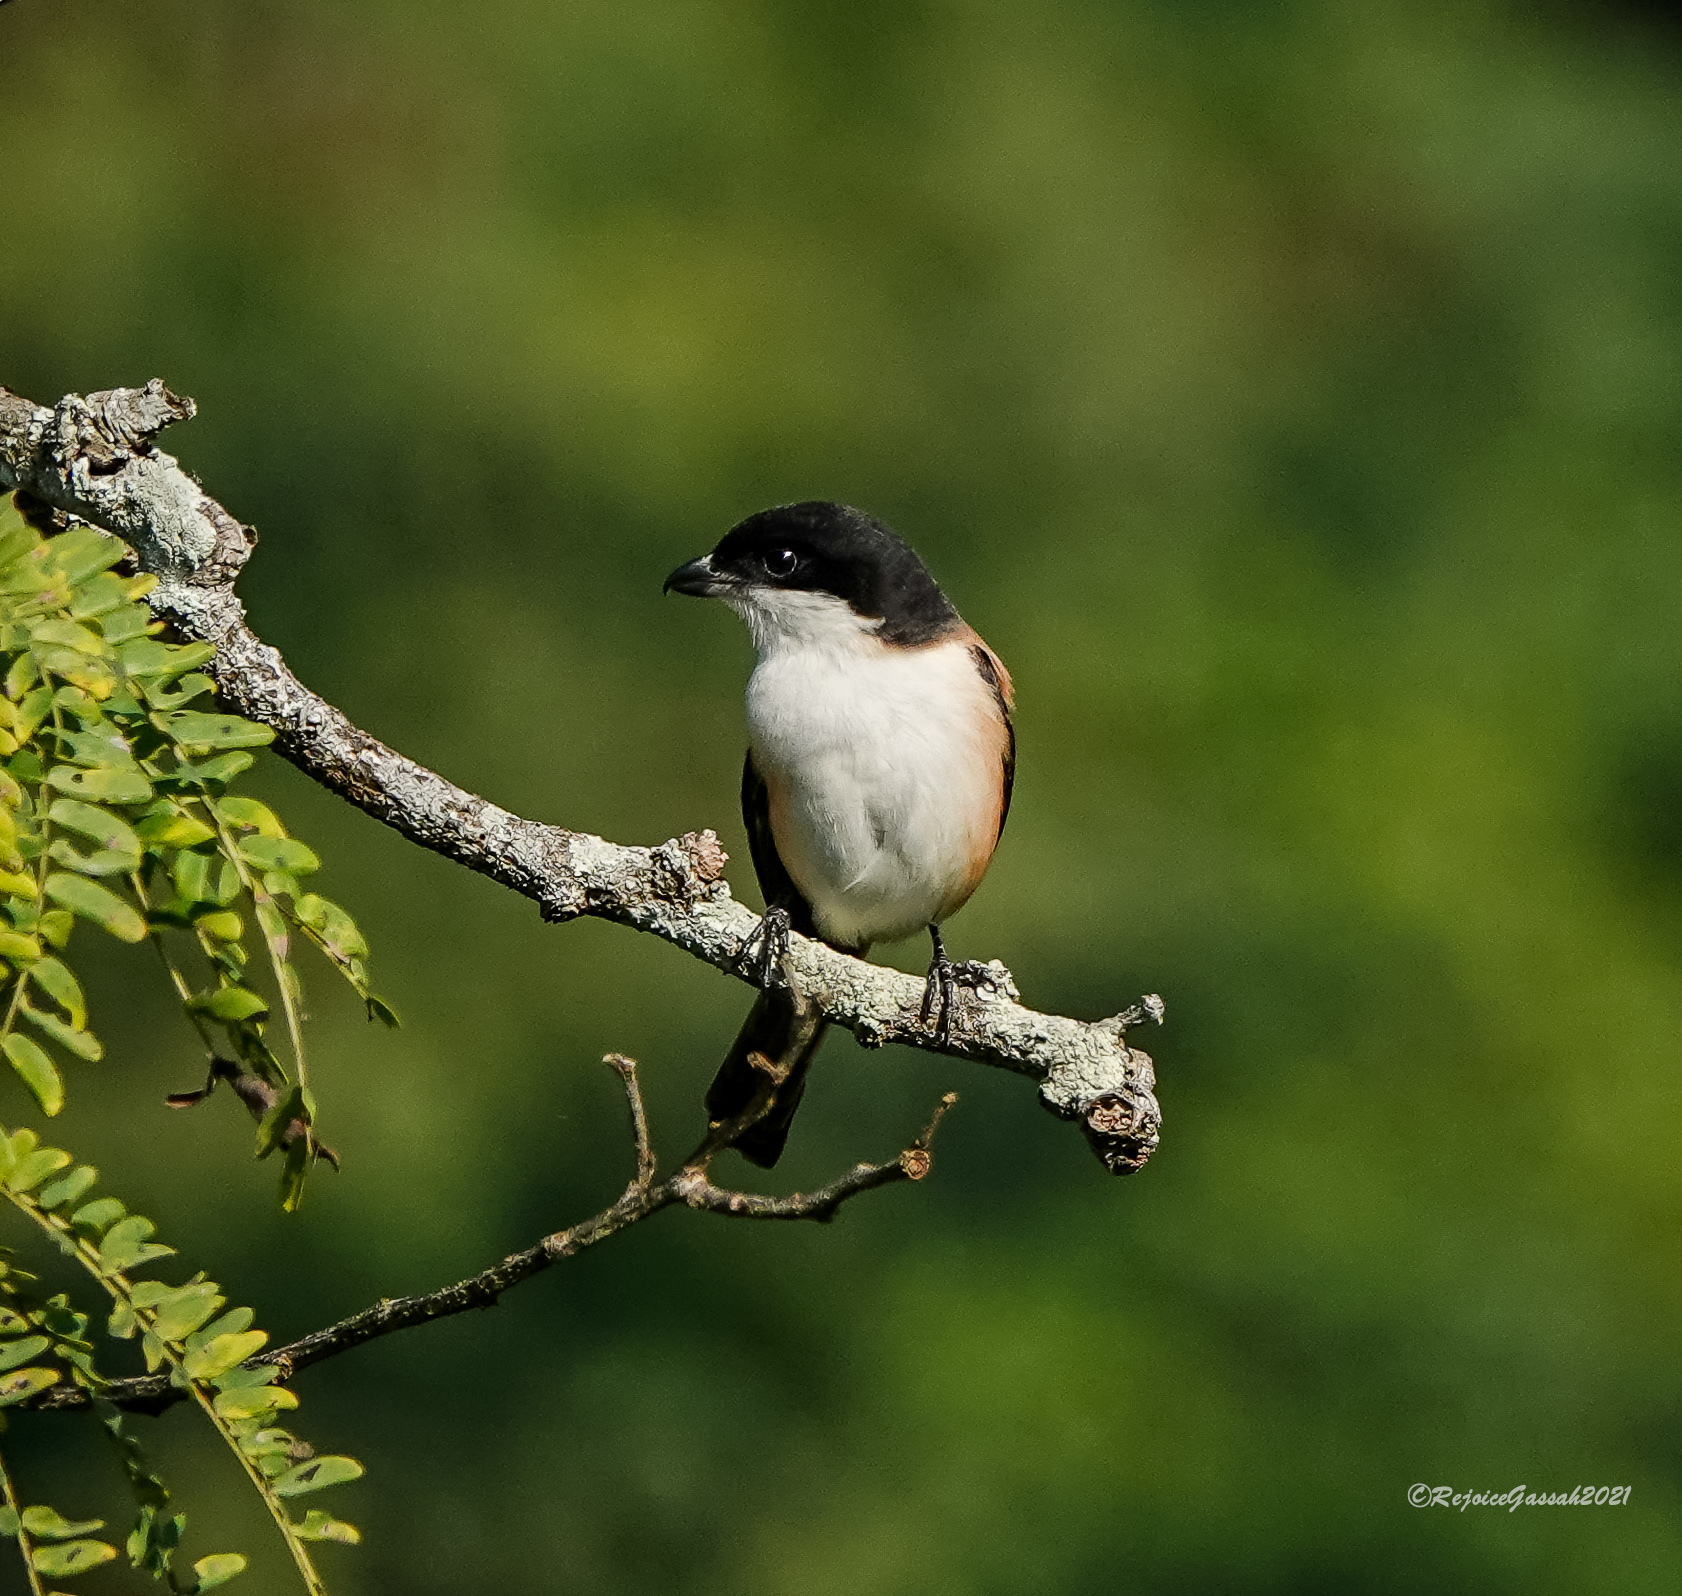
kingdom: Animalia
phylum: Chordata
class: Aves
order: Passeriformes
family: Laniidae
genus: Lanius
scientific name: Lanius schach
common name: Long-tailed shrike
